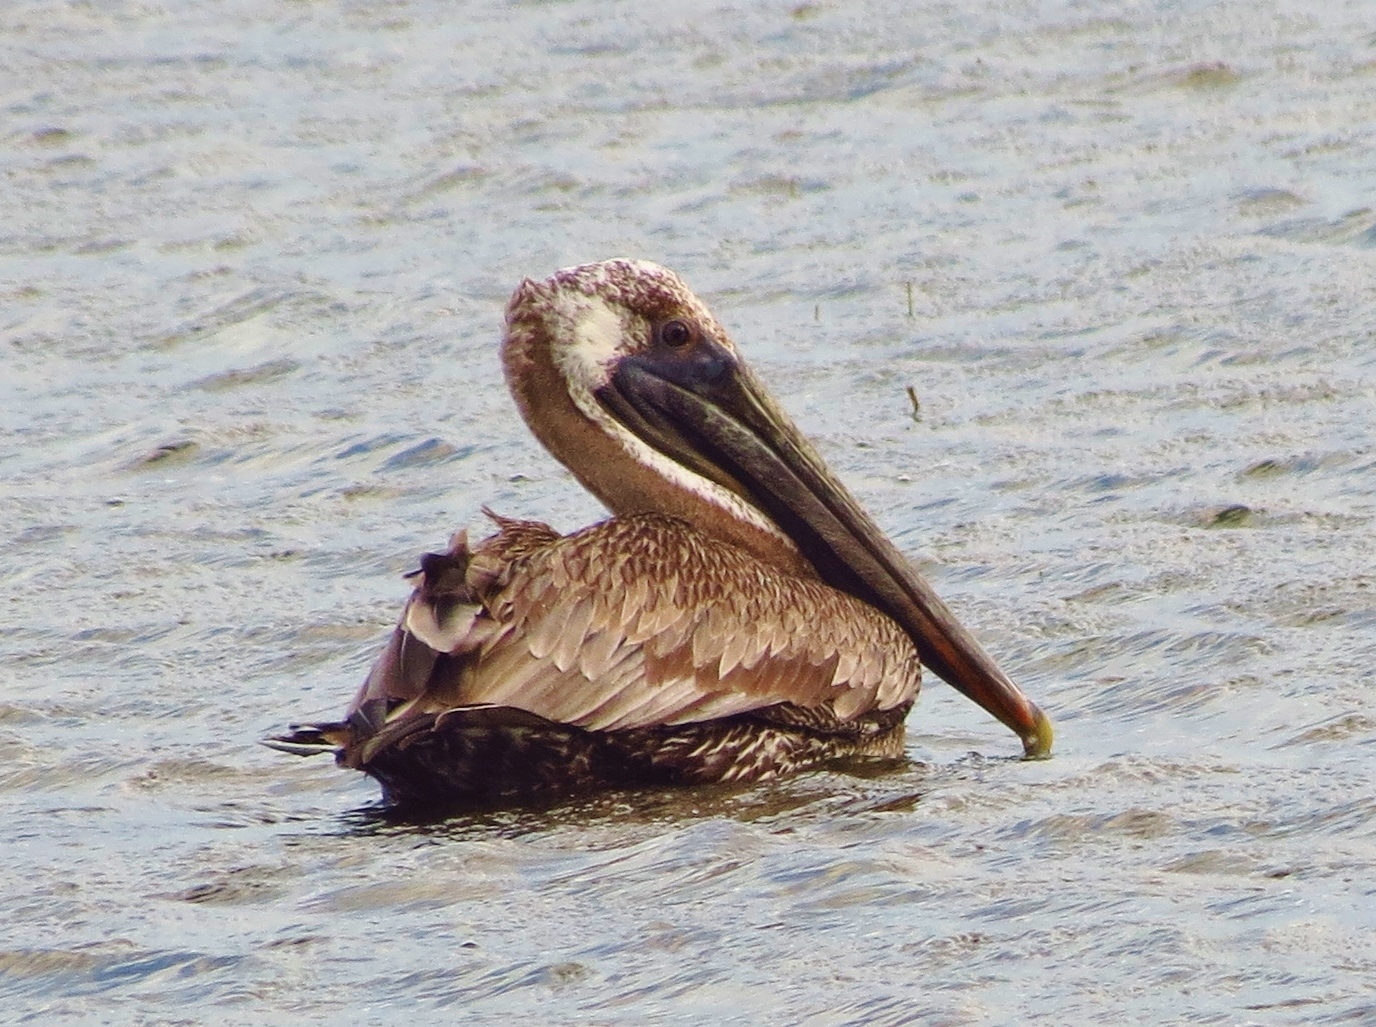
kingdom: Animalia
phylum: Chordata
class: Aves
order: Pelecaniformes
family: Pelecanidae
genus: Pelecanus
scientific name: Pelecanus occidentalis
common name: Brown pelican
